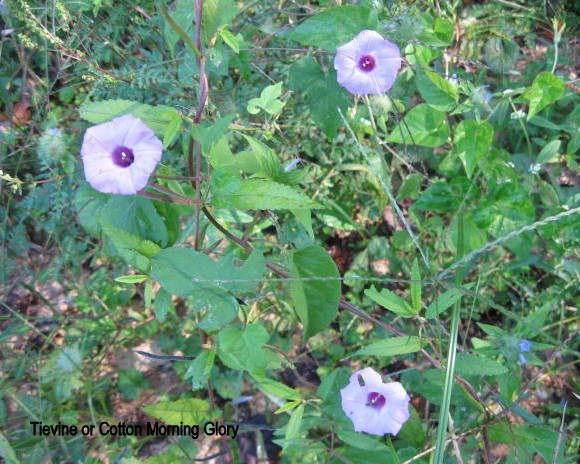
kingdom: Plantae
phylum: Tracheophyta
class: Magnoliopsida
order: Solanales
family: Convolvulaceae
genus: Ipomoea
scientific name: Ipomoea cordatotriloba
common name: Cotton morning glory
